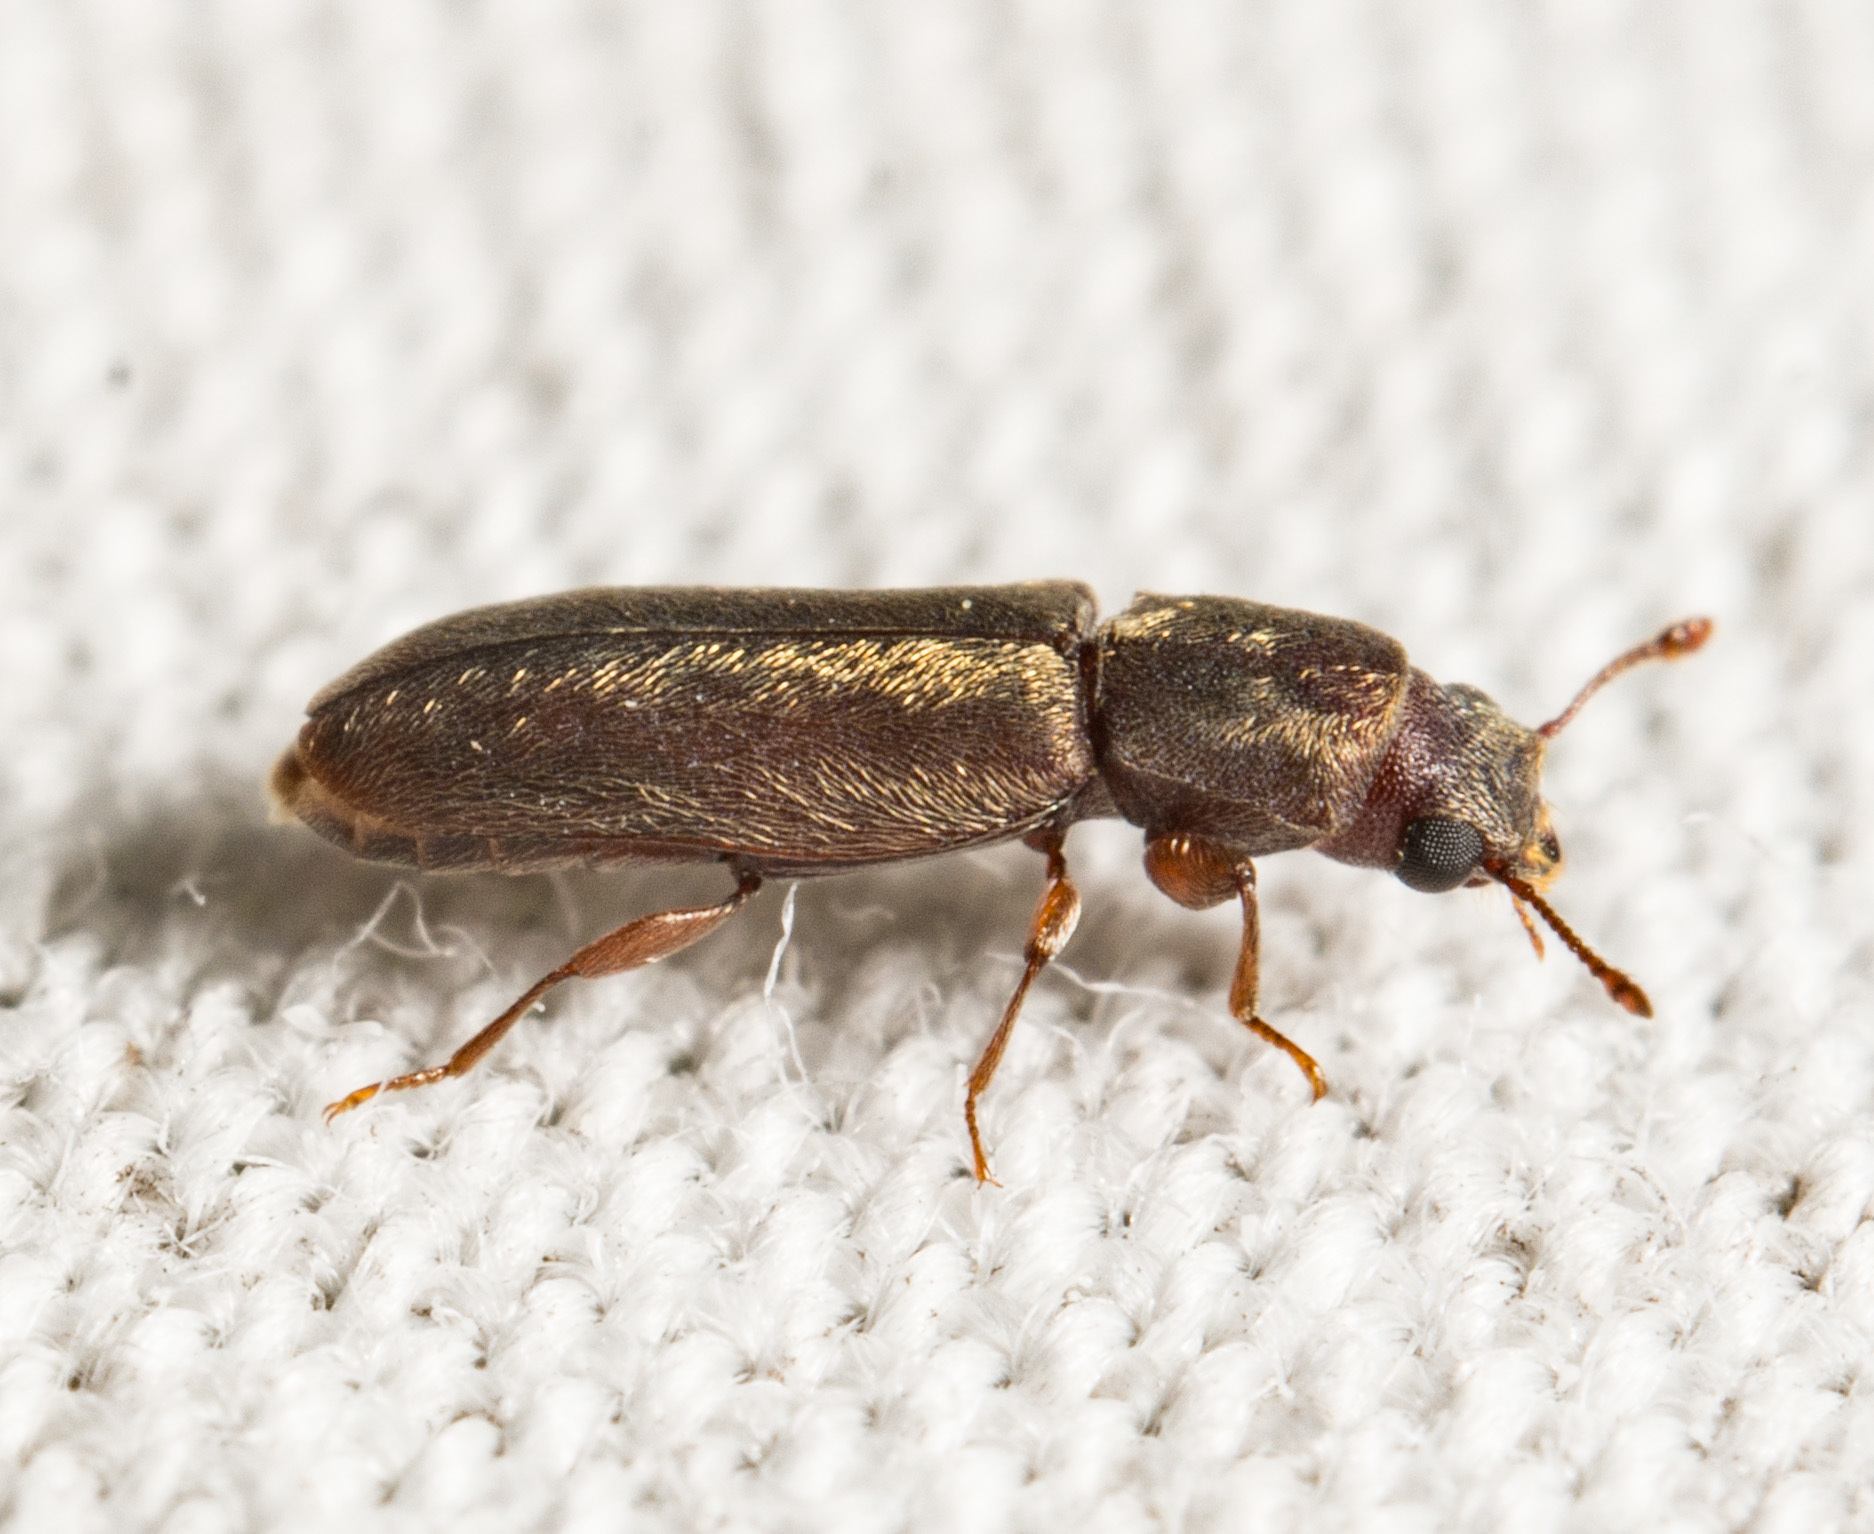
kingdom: Animalia
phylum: Arthropoda
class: Insecta
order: Coleoptera
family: Bostrichidae
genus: Trogoxylon
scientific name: Trogoxylon parallelipipedum
